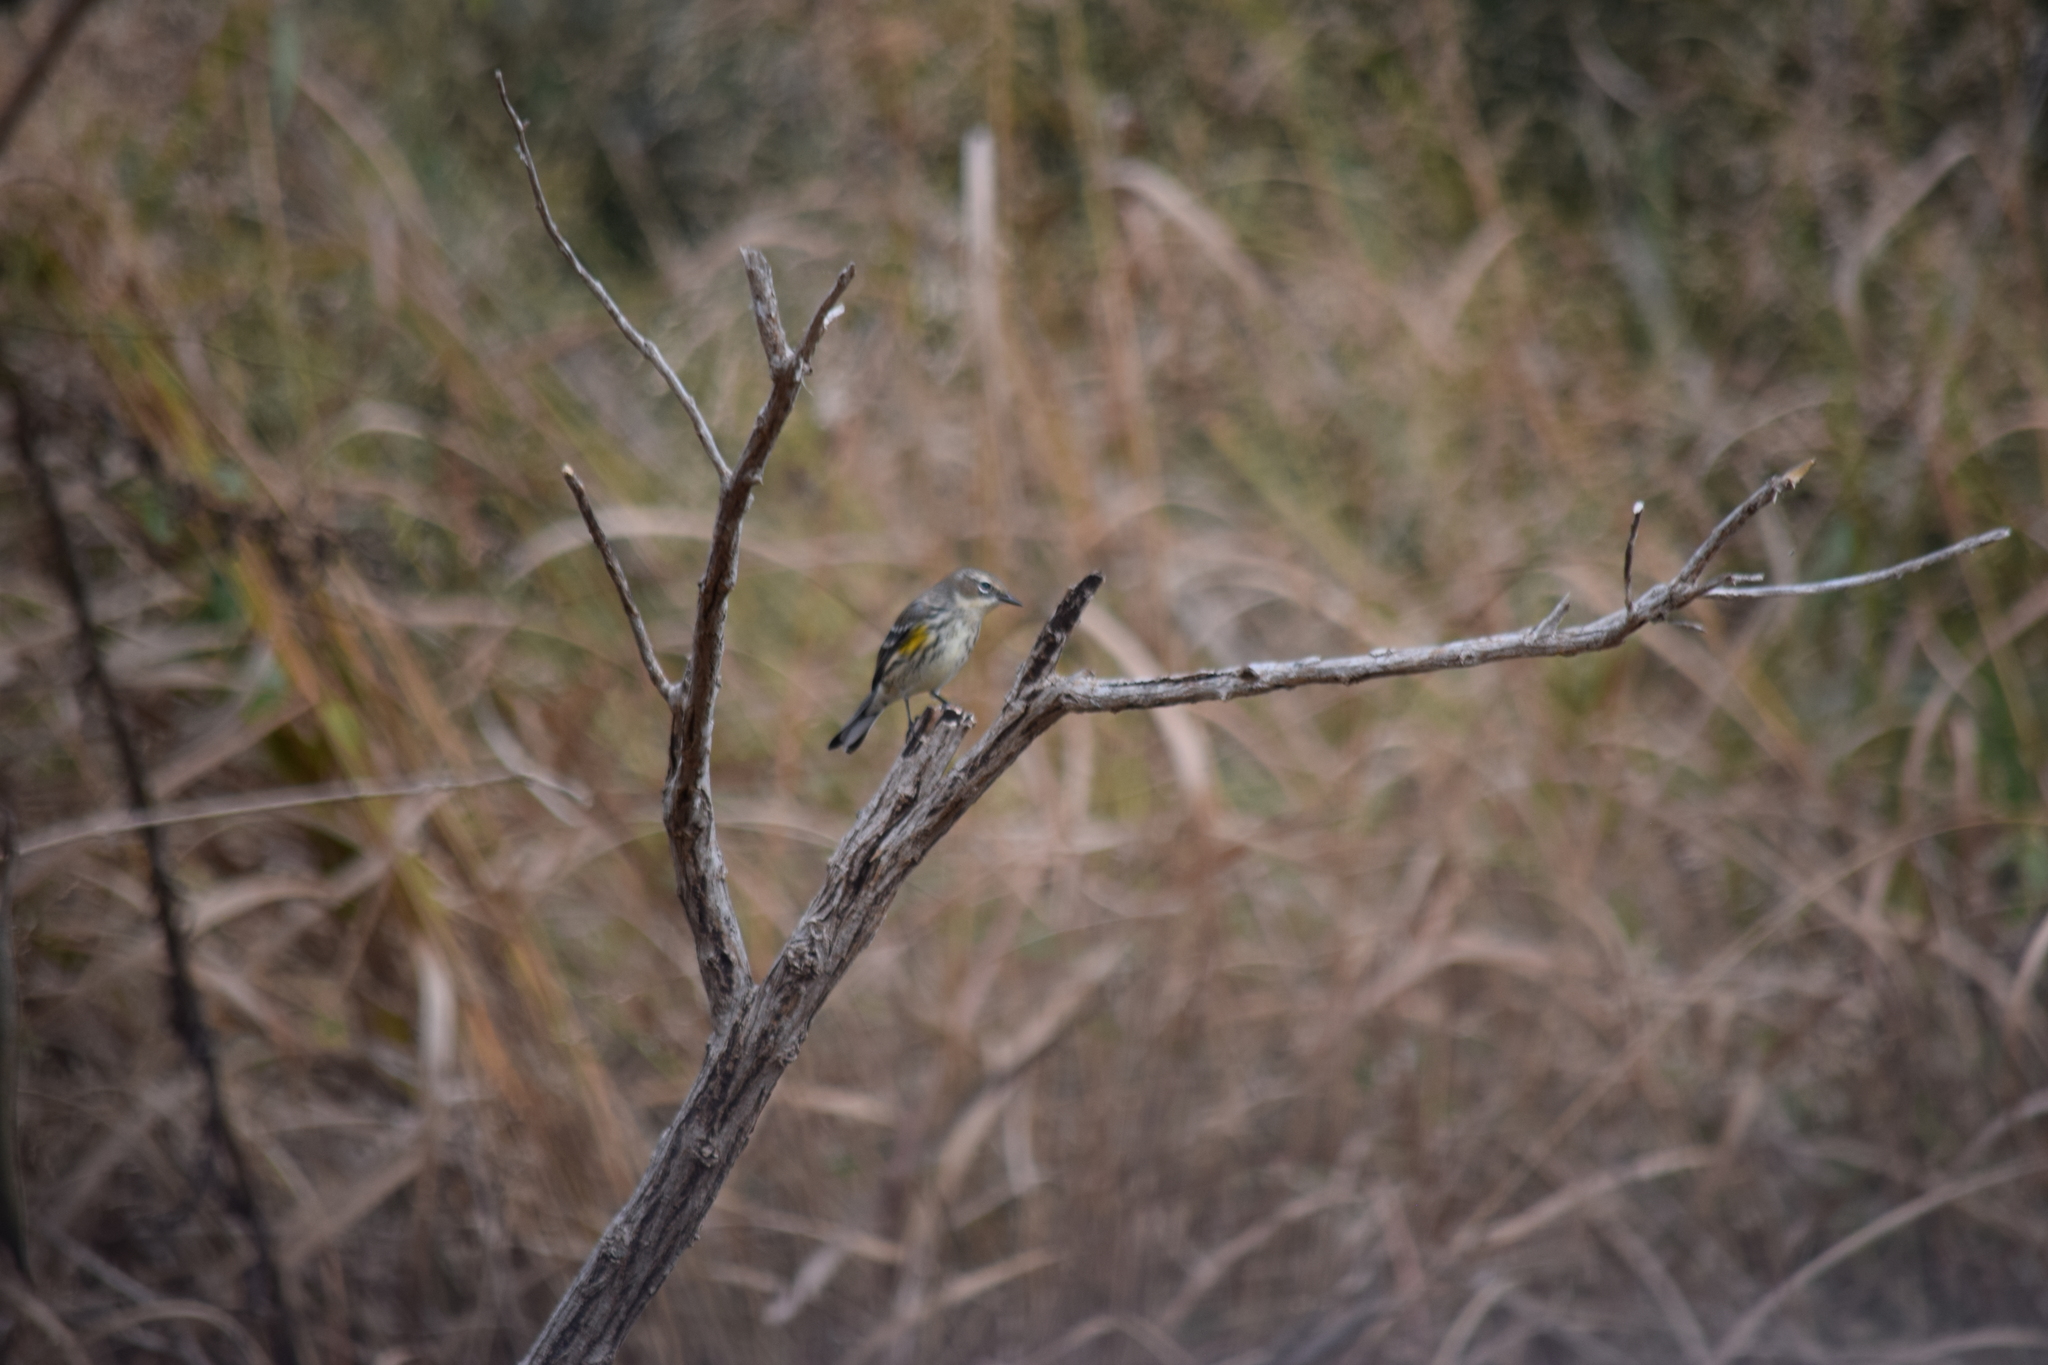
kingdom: Animalia
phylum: Chordata
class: Aves
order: Passeriformes
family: Parulidae
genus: Setophaga
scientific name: Setophaga coronata
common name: Myrtle warbler
